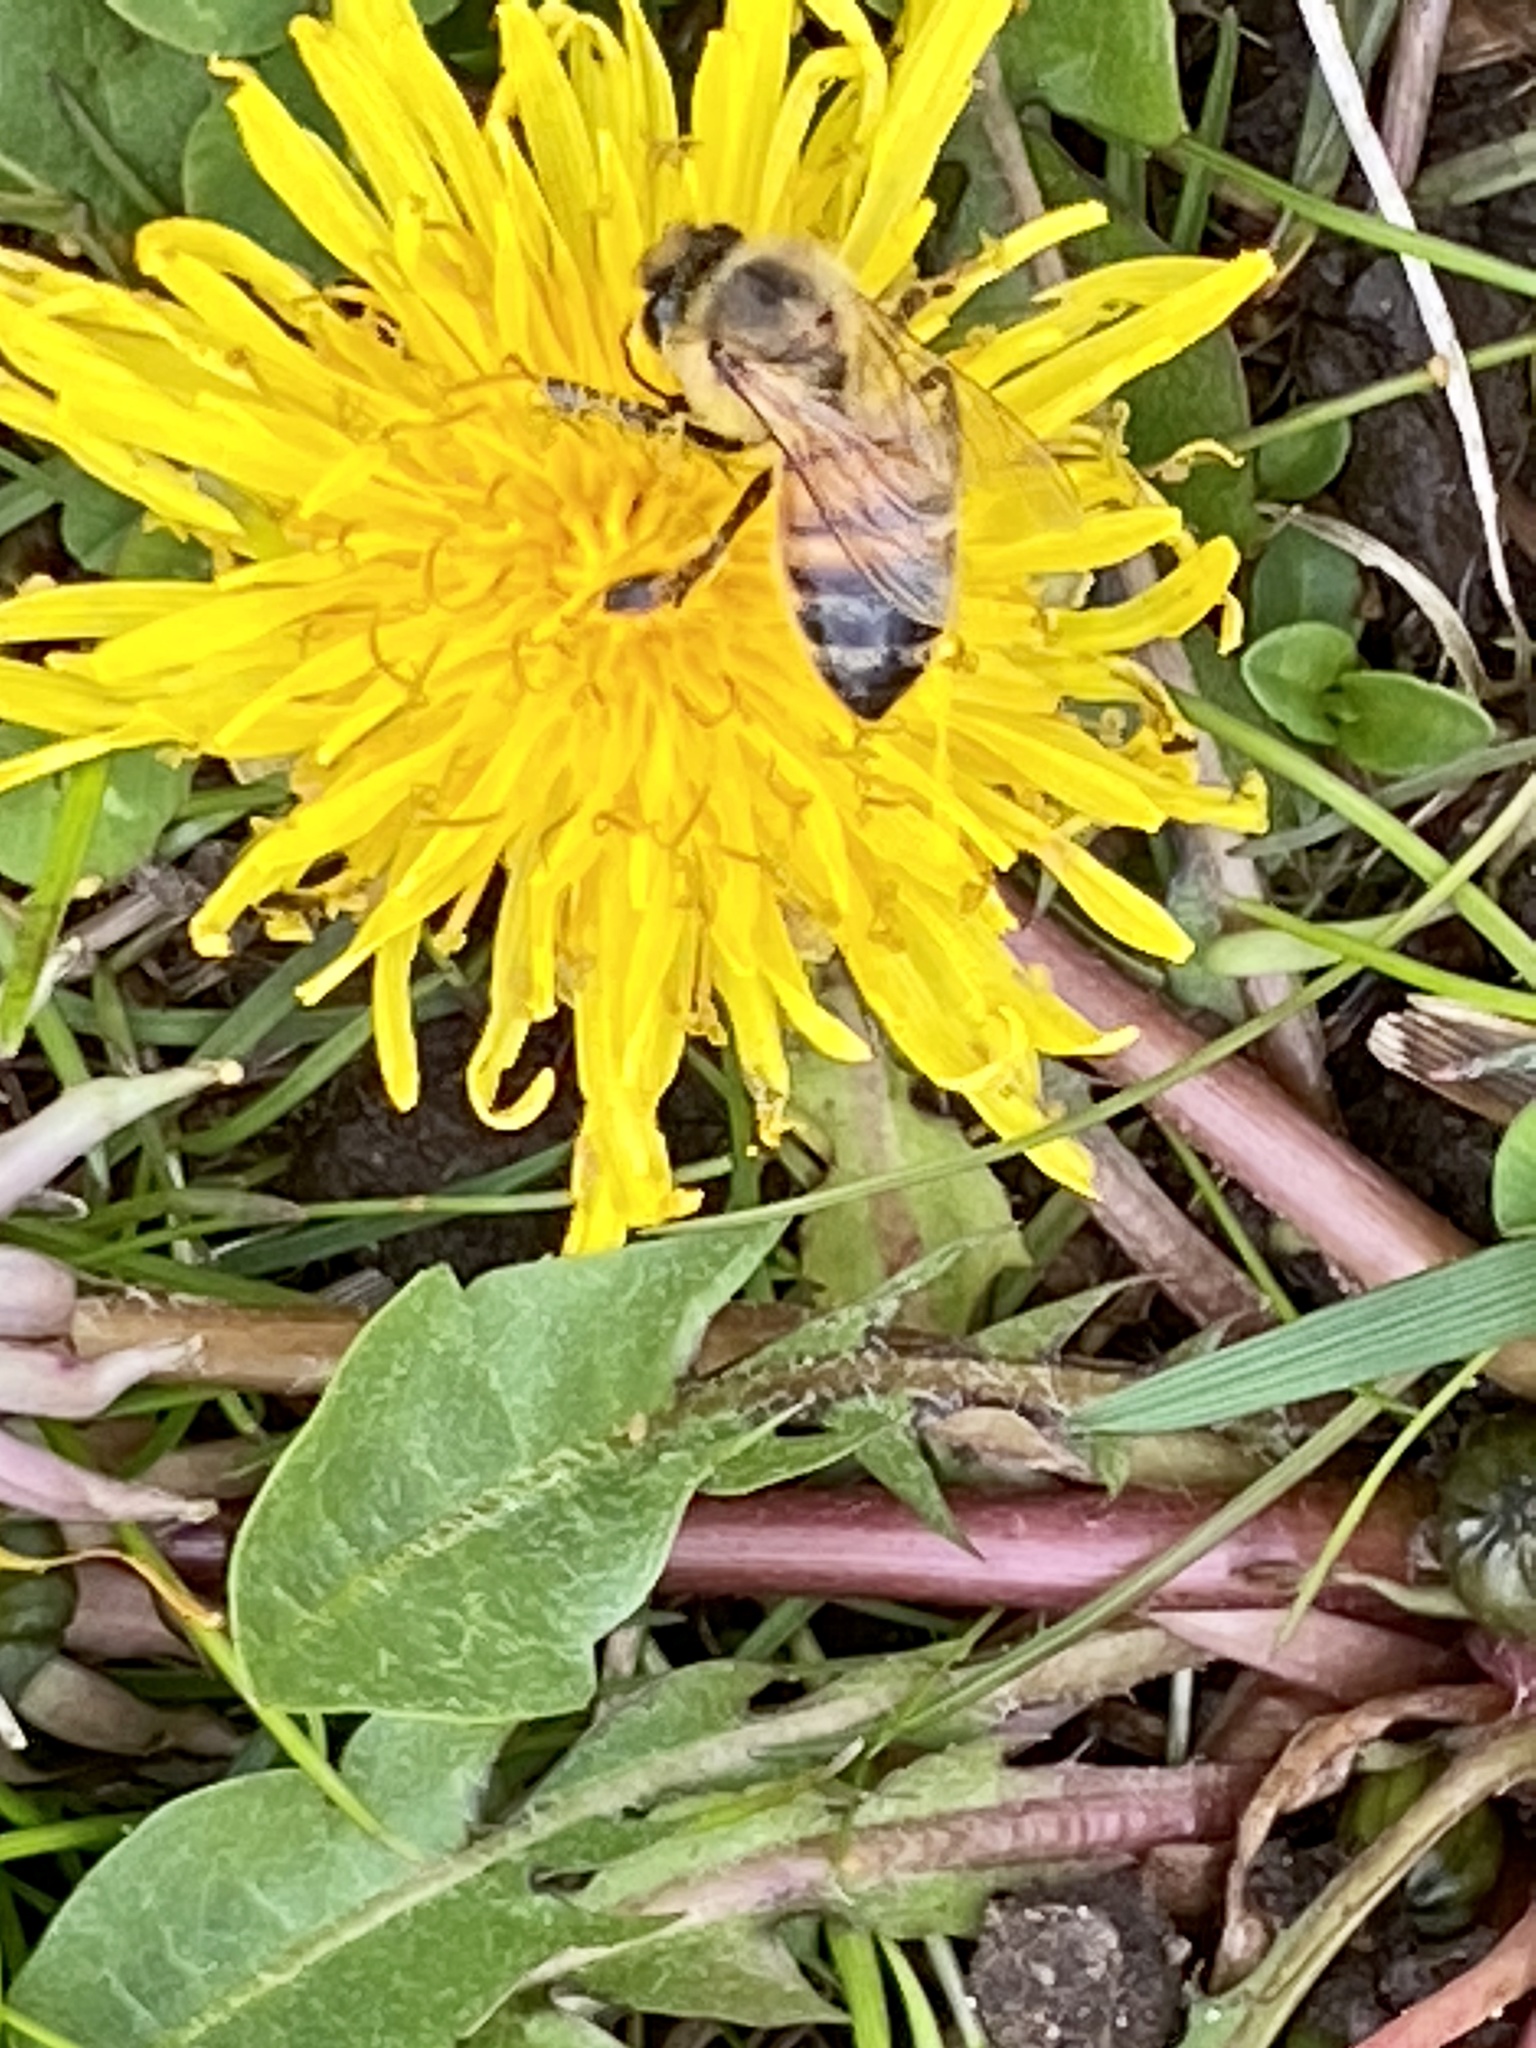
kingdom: Animalia
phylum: Arthropoda
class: Insecta
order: Hymenoptera
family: Apidae
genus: Apis
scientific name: Apis mellifera
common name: Honey bee
